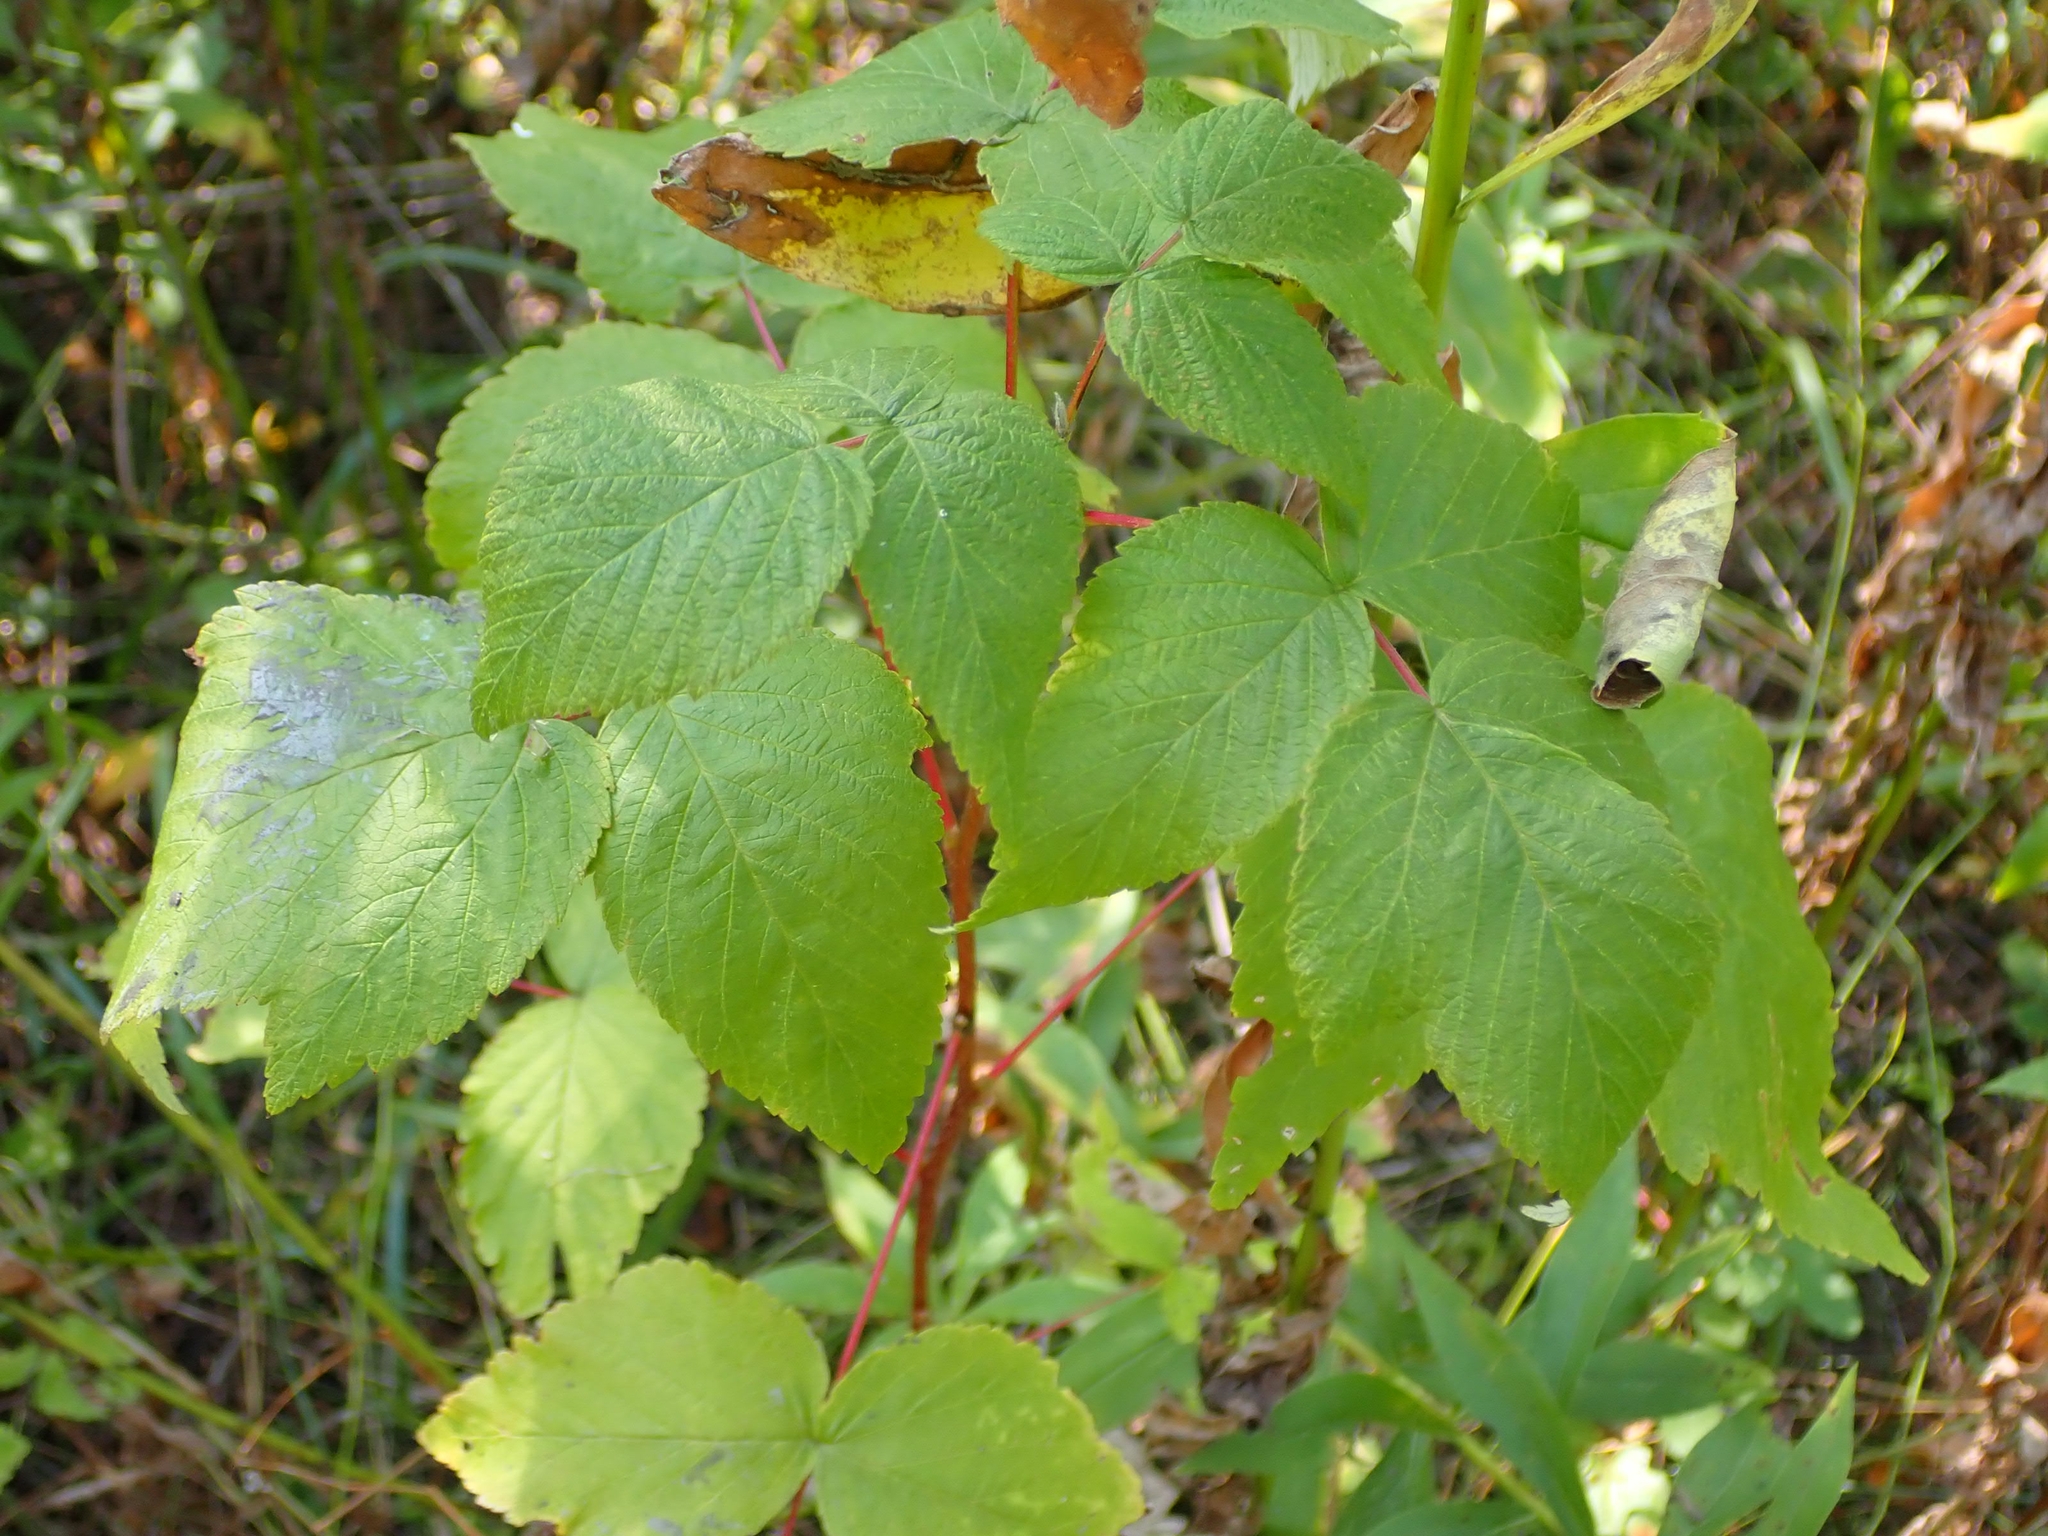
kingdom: Plantae
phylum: Tracheophyta
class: Magnoliopsida
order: Rosales
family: Rosaceae
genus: Rubus
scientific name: Rubus idaeus
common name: Raspberry
